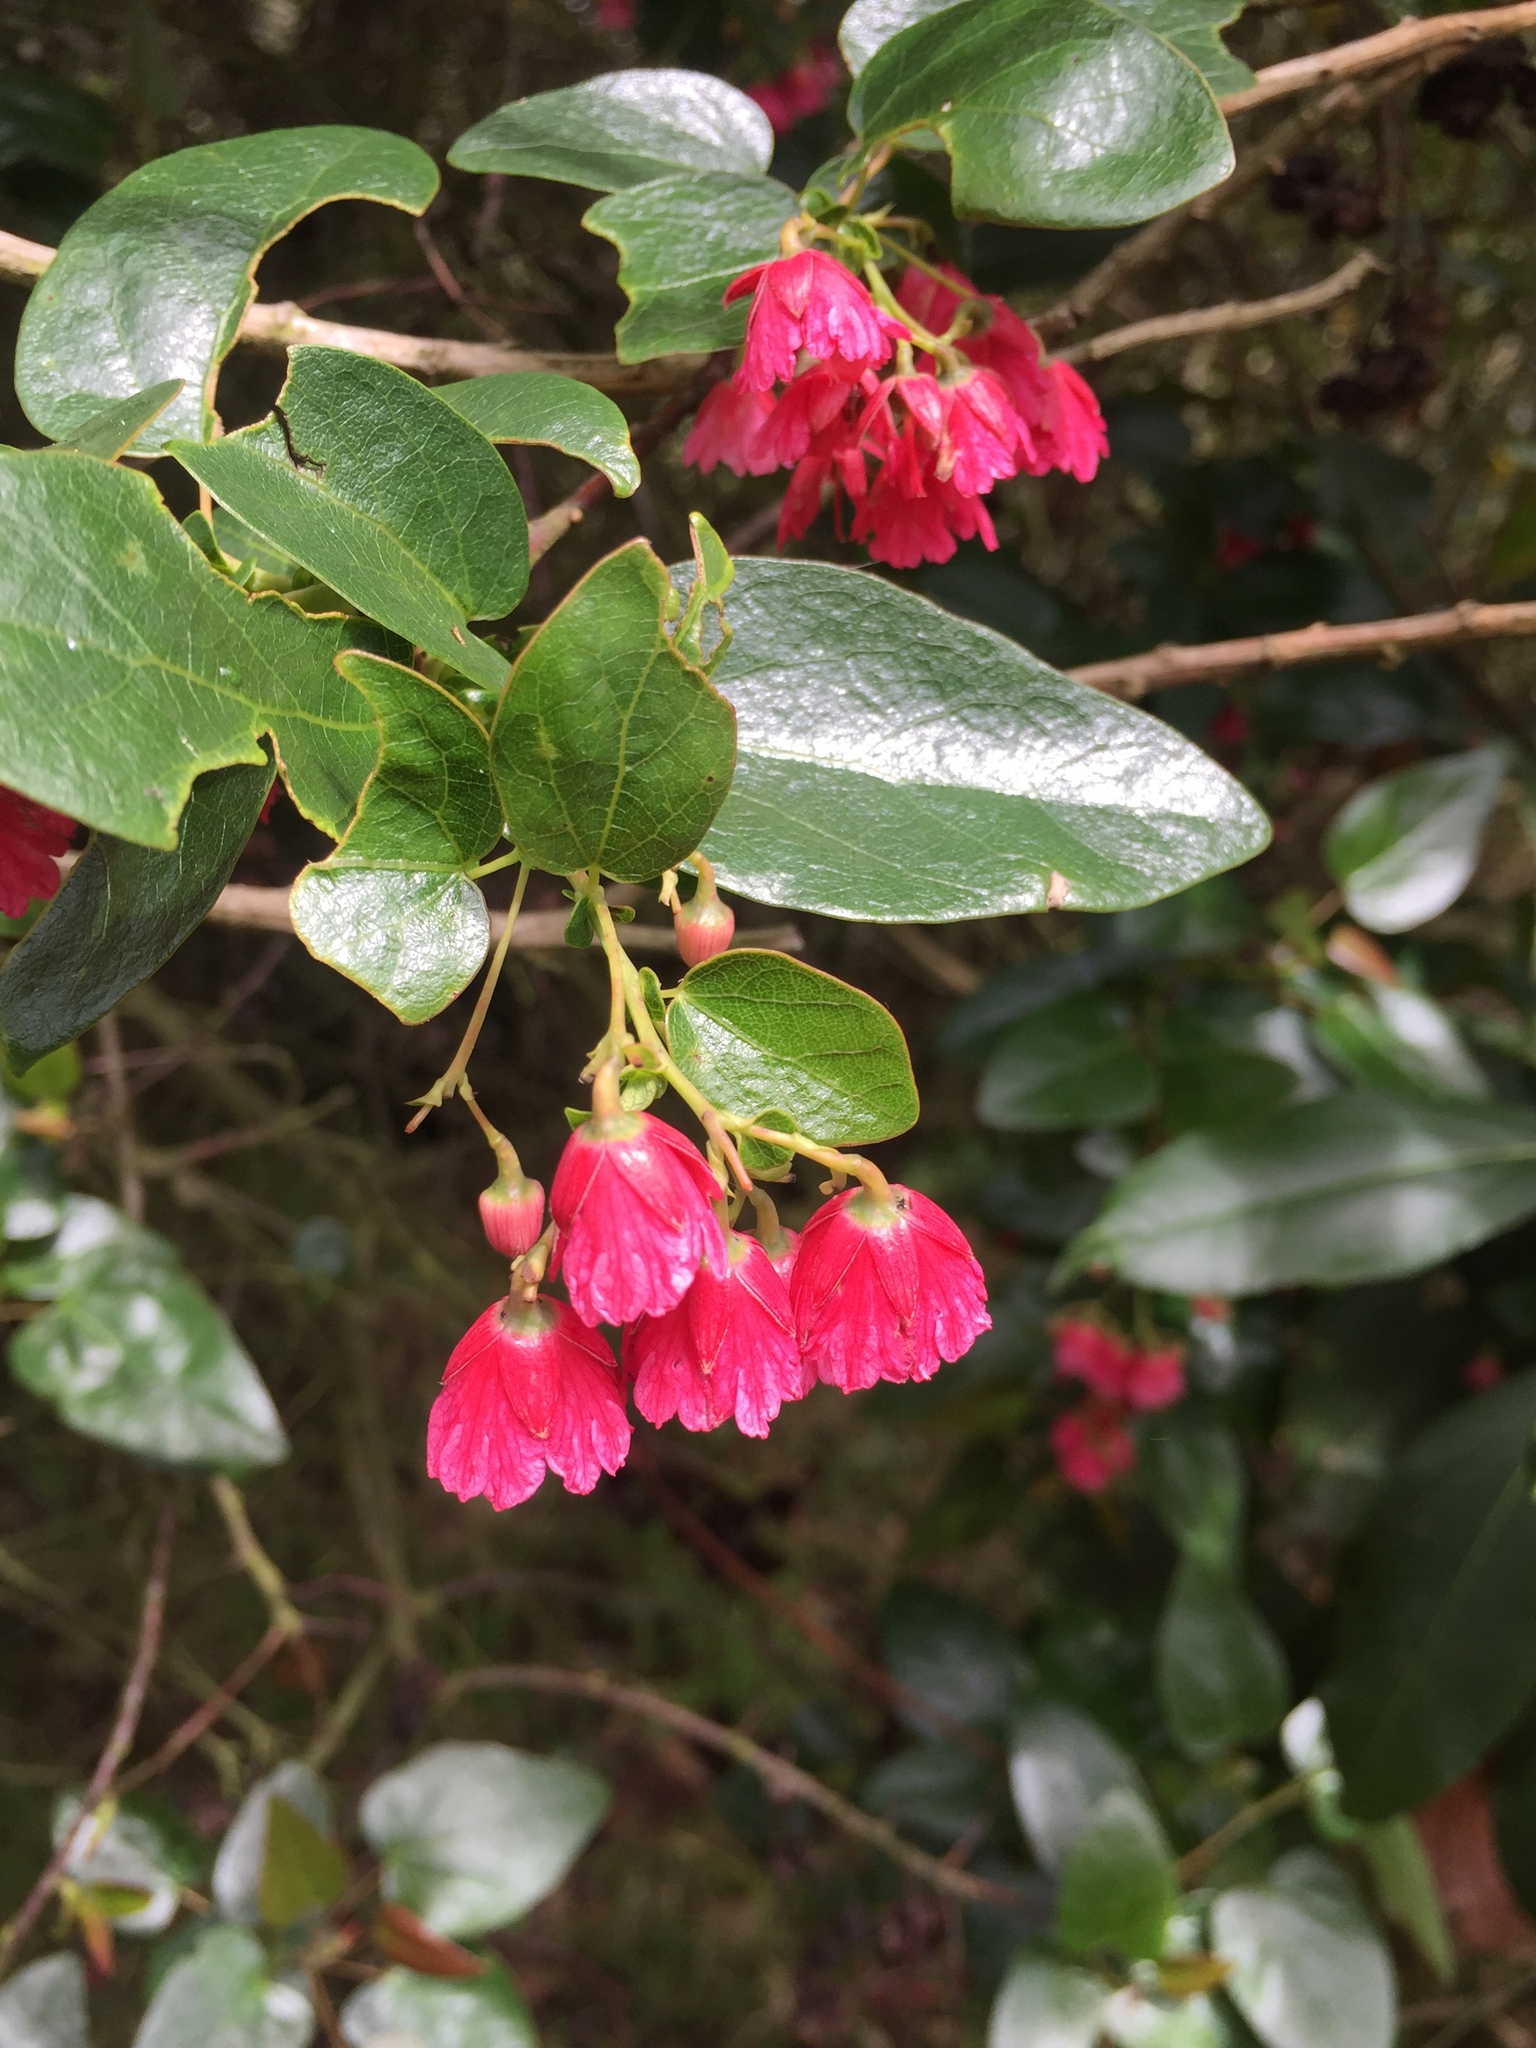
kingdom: Plantae
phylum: Tracheophyta
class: Magnoliopsida
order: Oxalidales
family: Elaeocarpaceae
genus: Vallea
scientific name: Vallea stipularis
